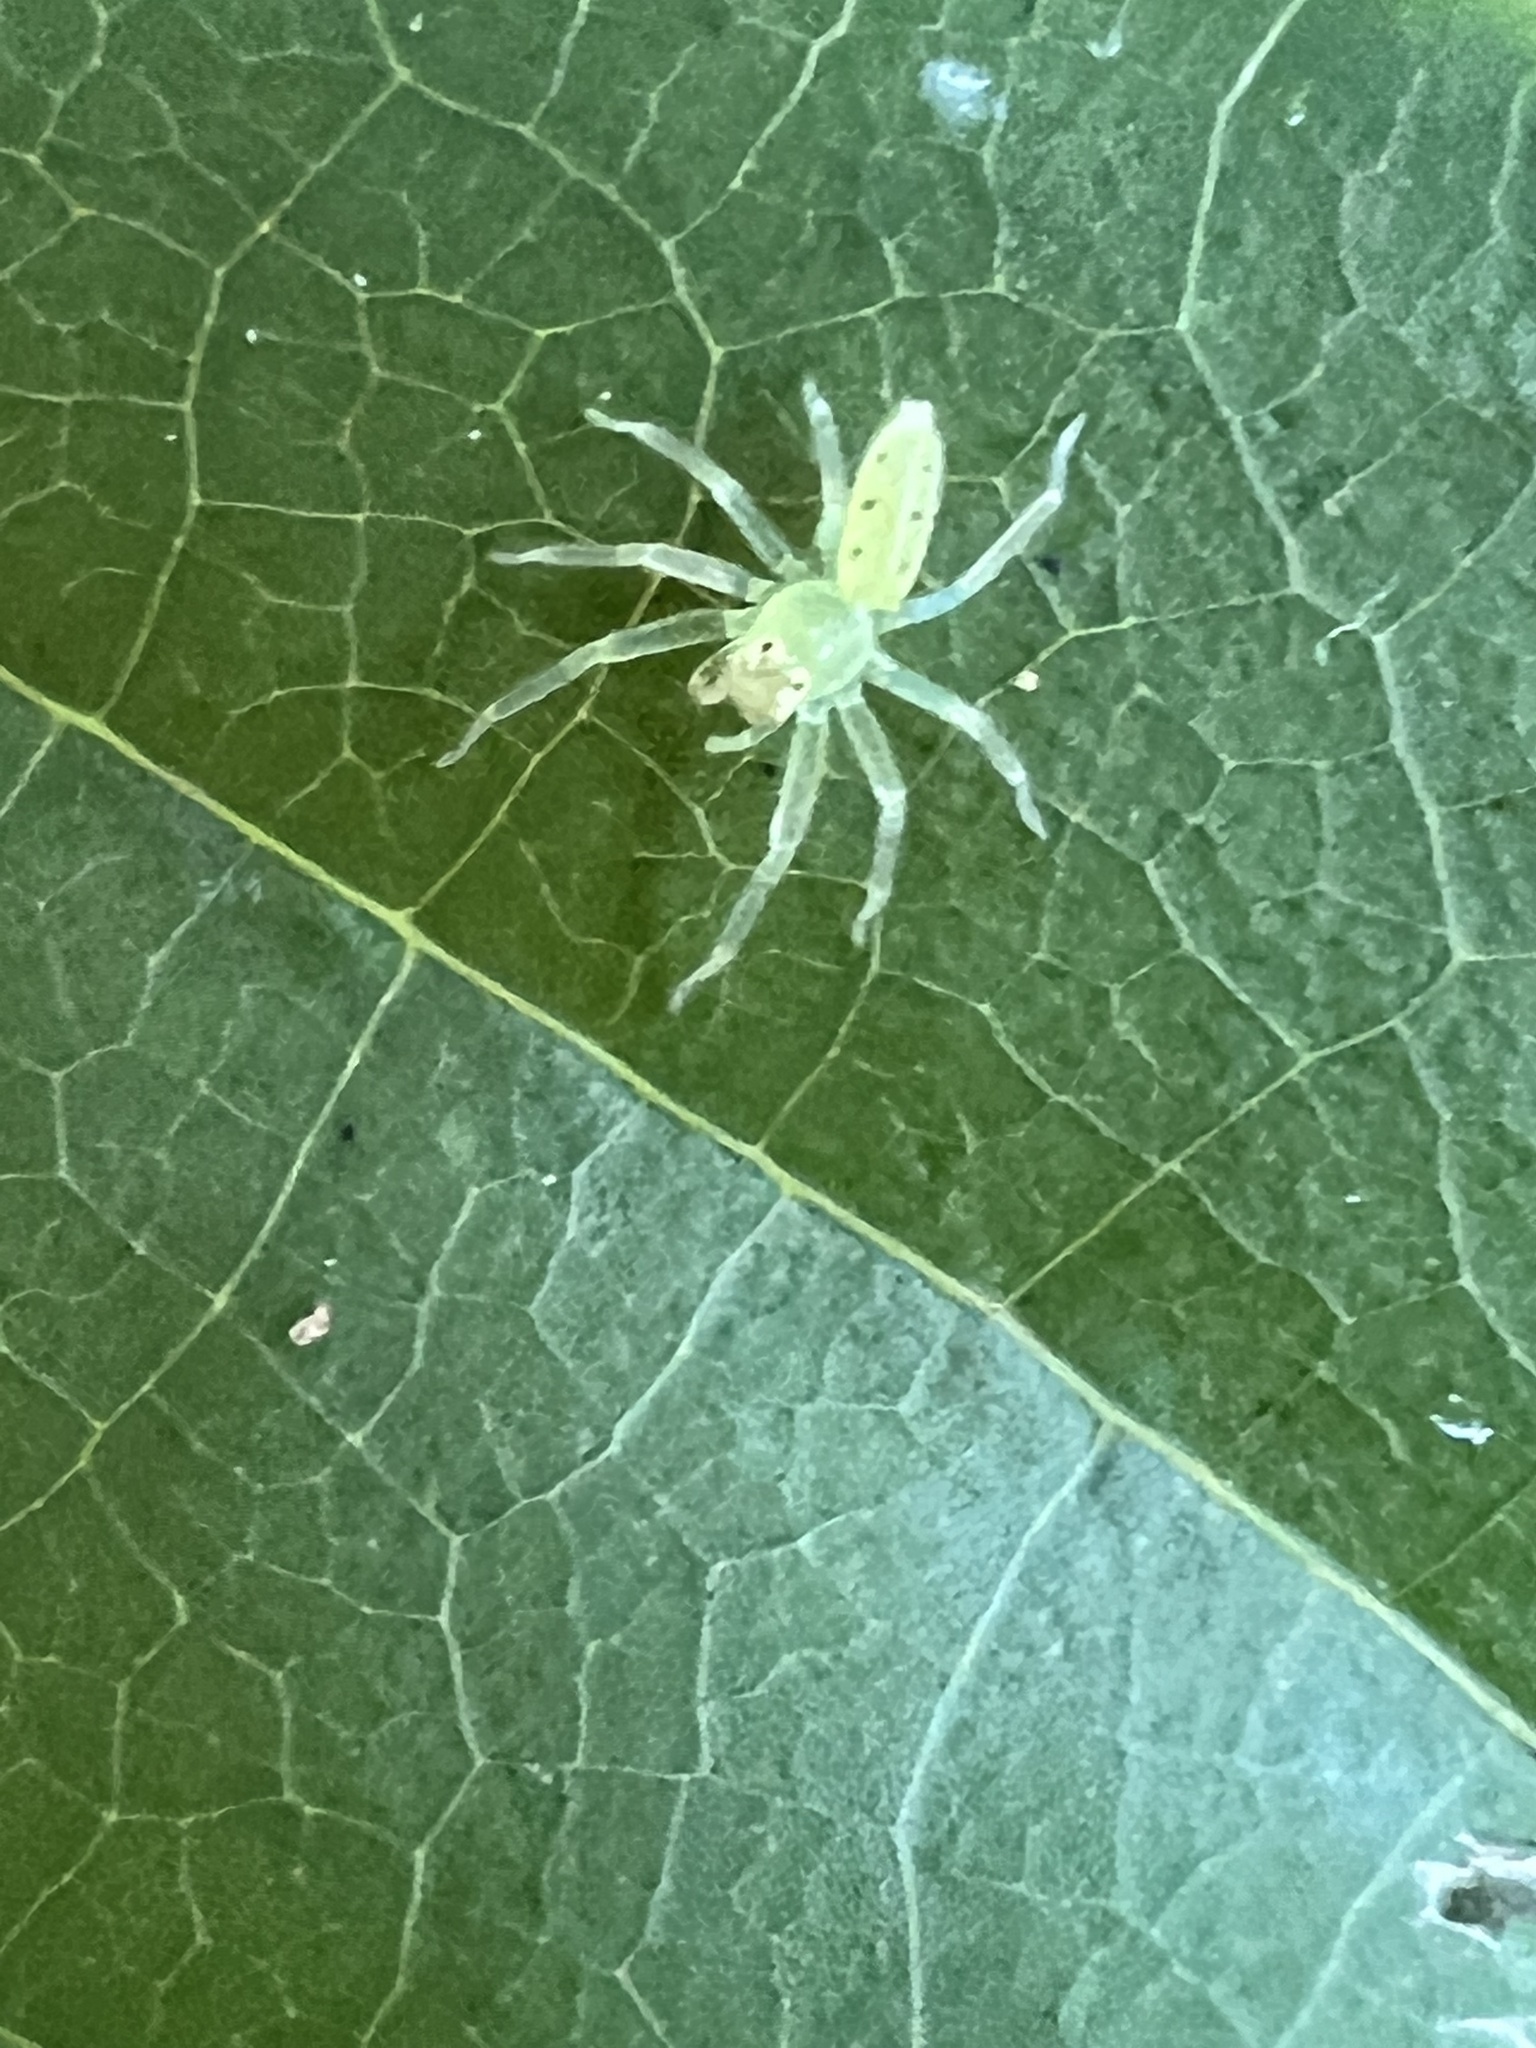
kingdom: Animalia
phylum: Arthropoda
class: Arachnida
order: Araneae
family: Salticidae
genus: Lyssomanes
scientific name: Lyssomanes viridis
